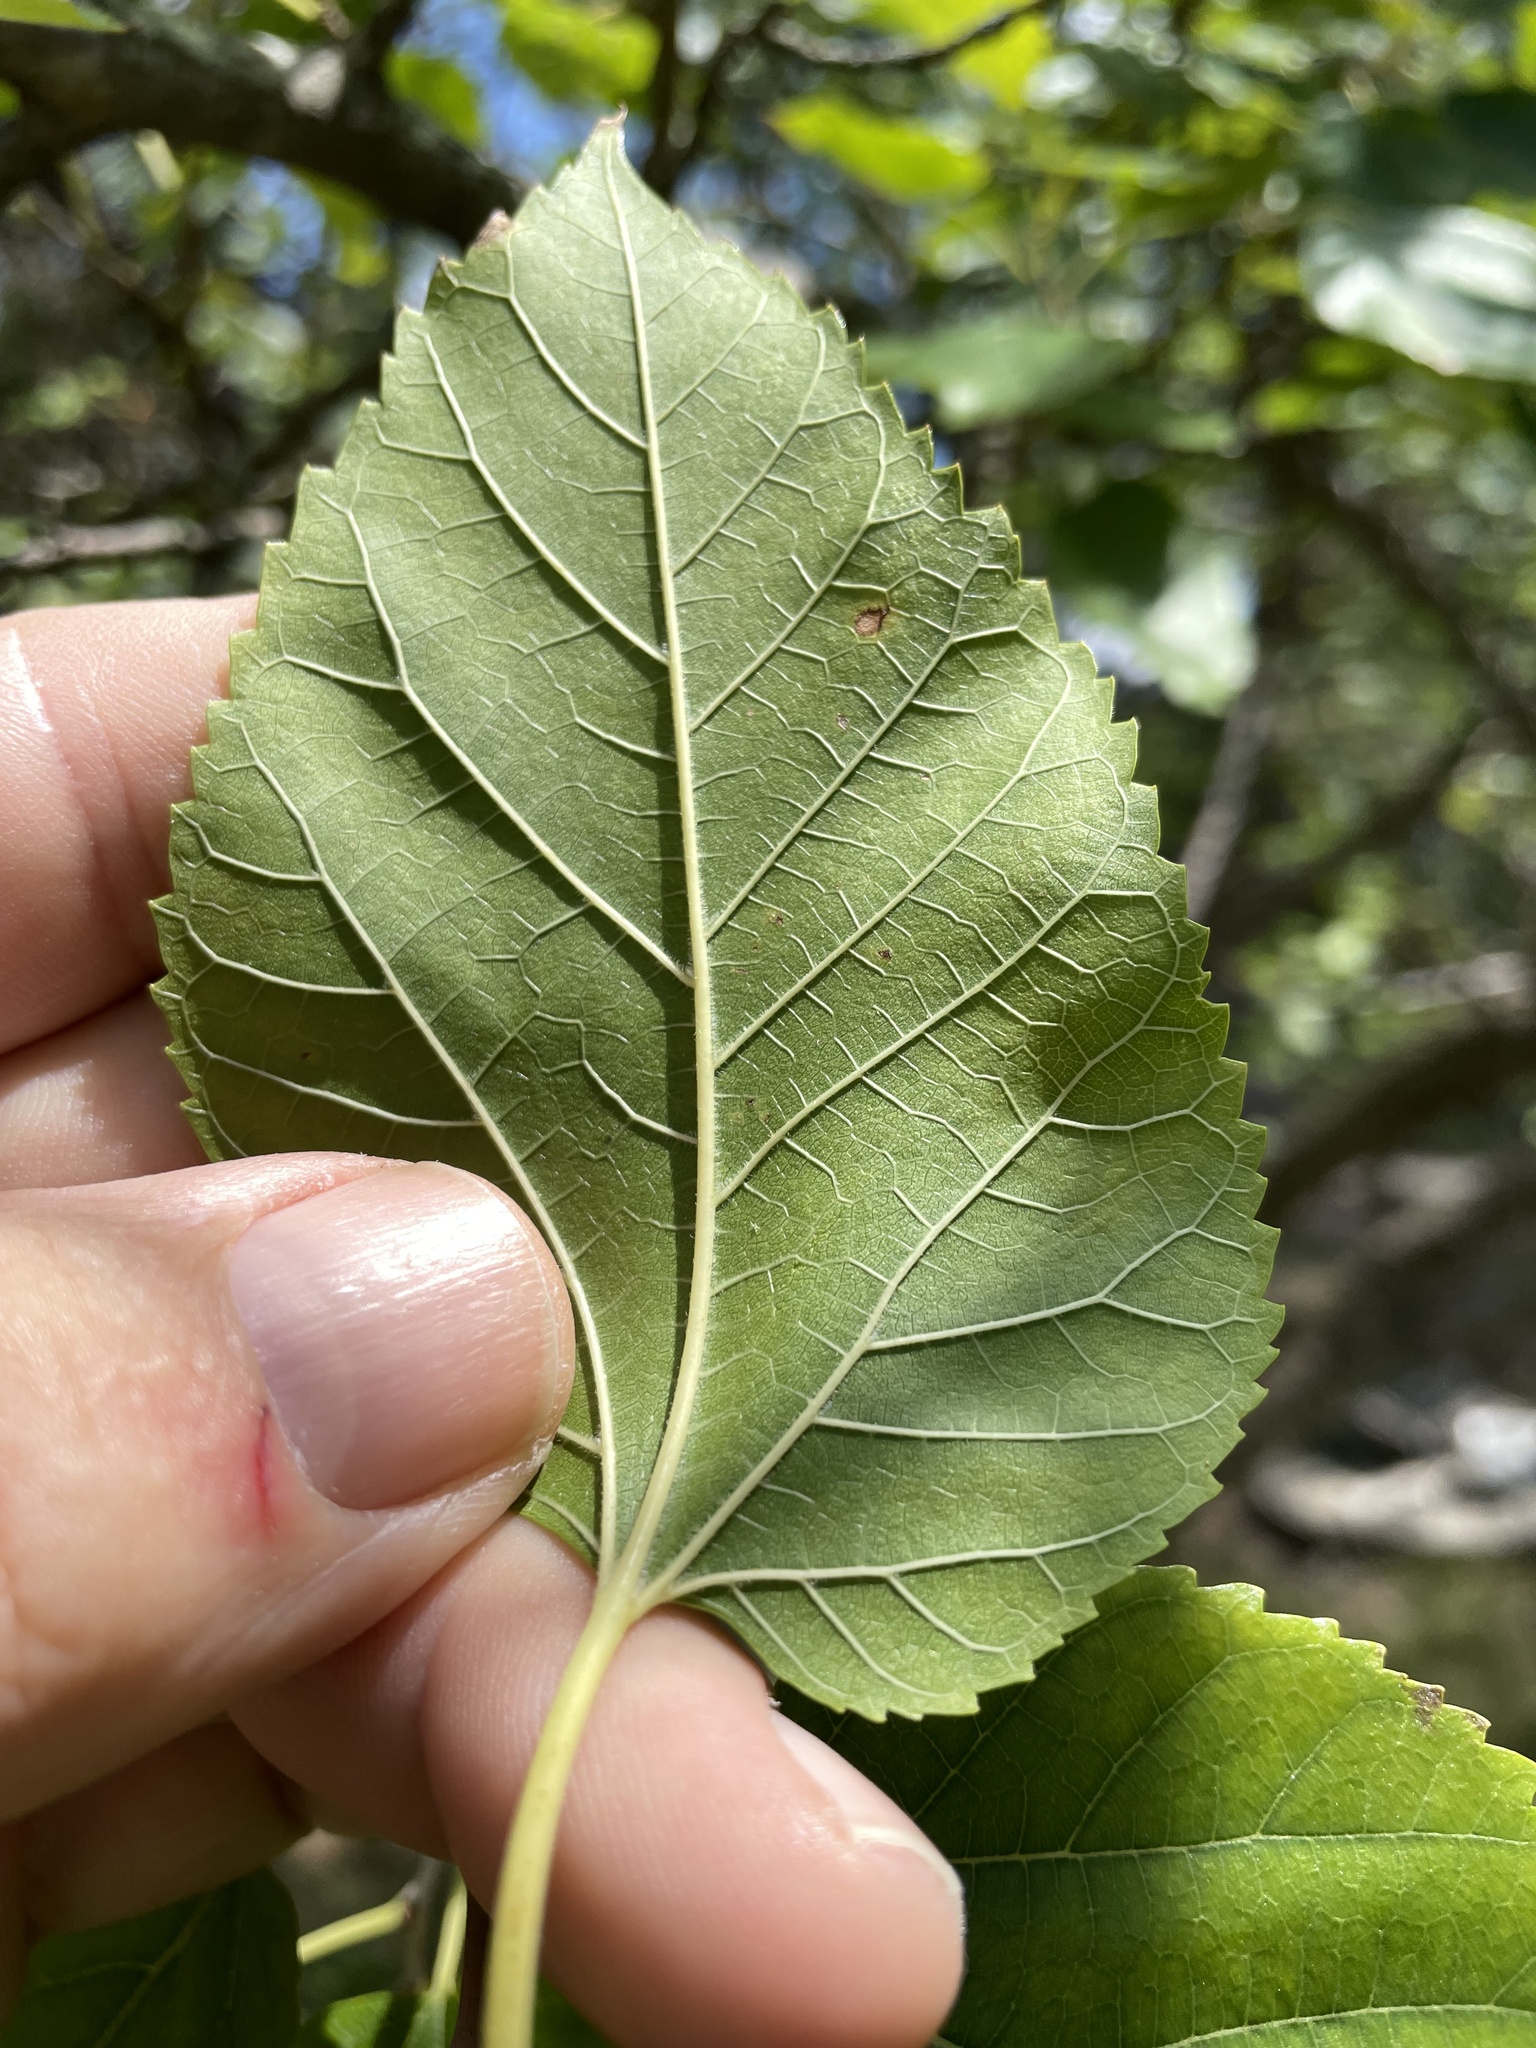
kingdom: Plantae
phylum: Tracheophyta
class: Magnoliopsida
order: Rosales
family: Moraceae
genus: Morus
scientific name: Morus alba
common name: White mulberry
